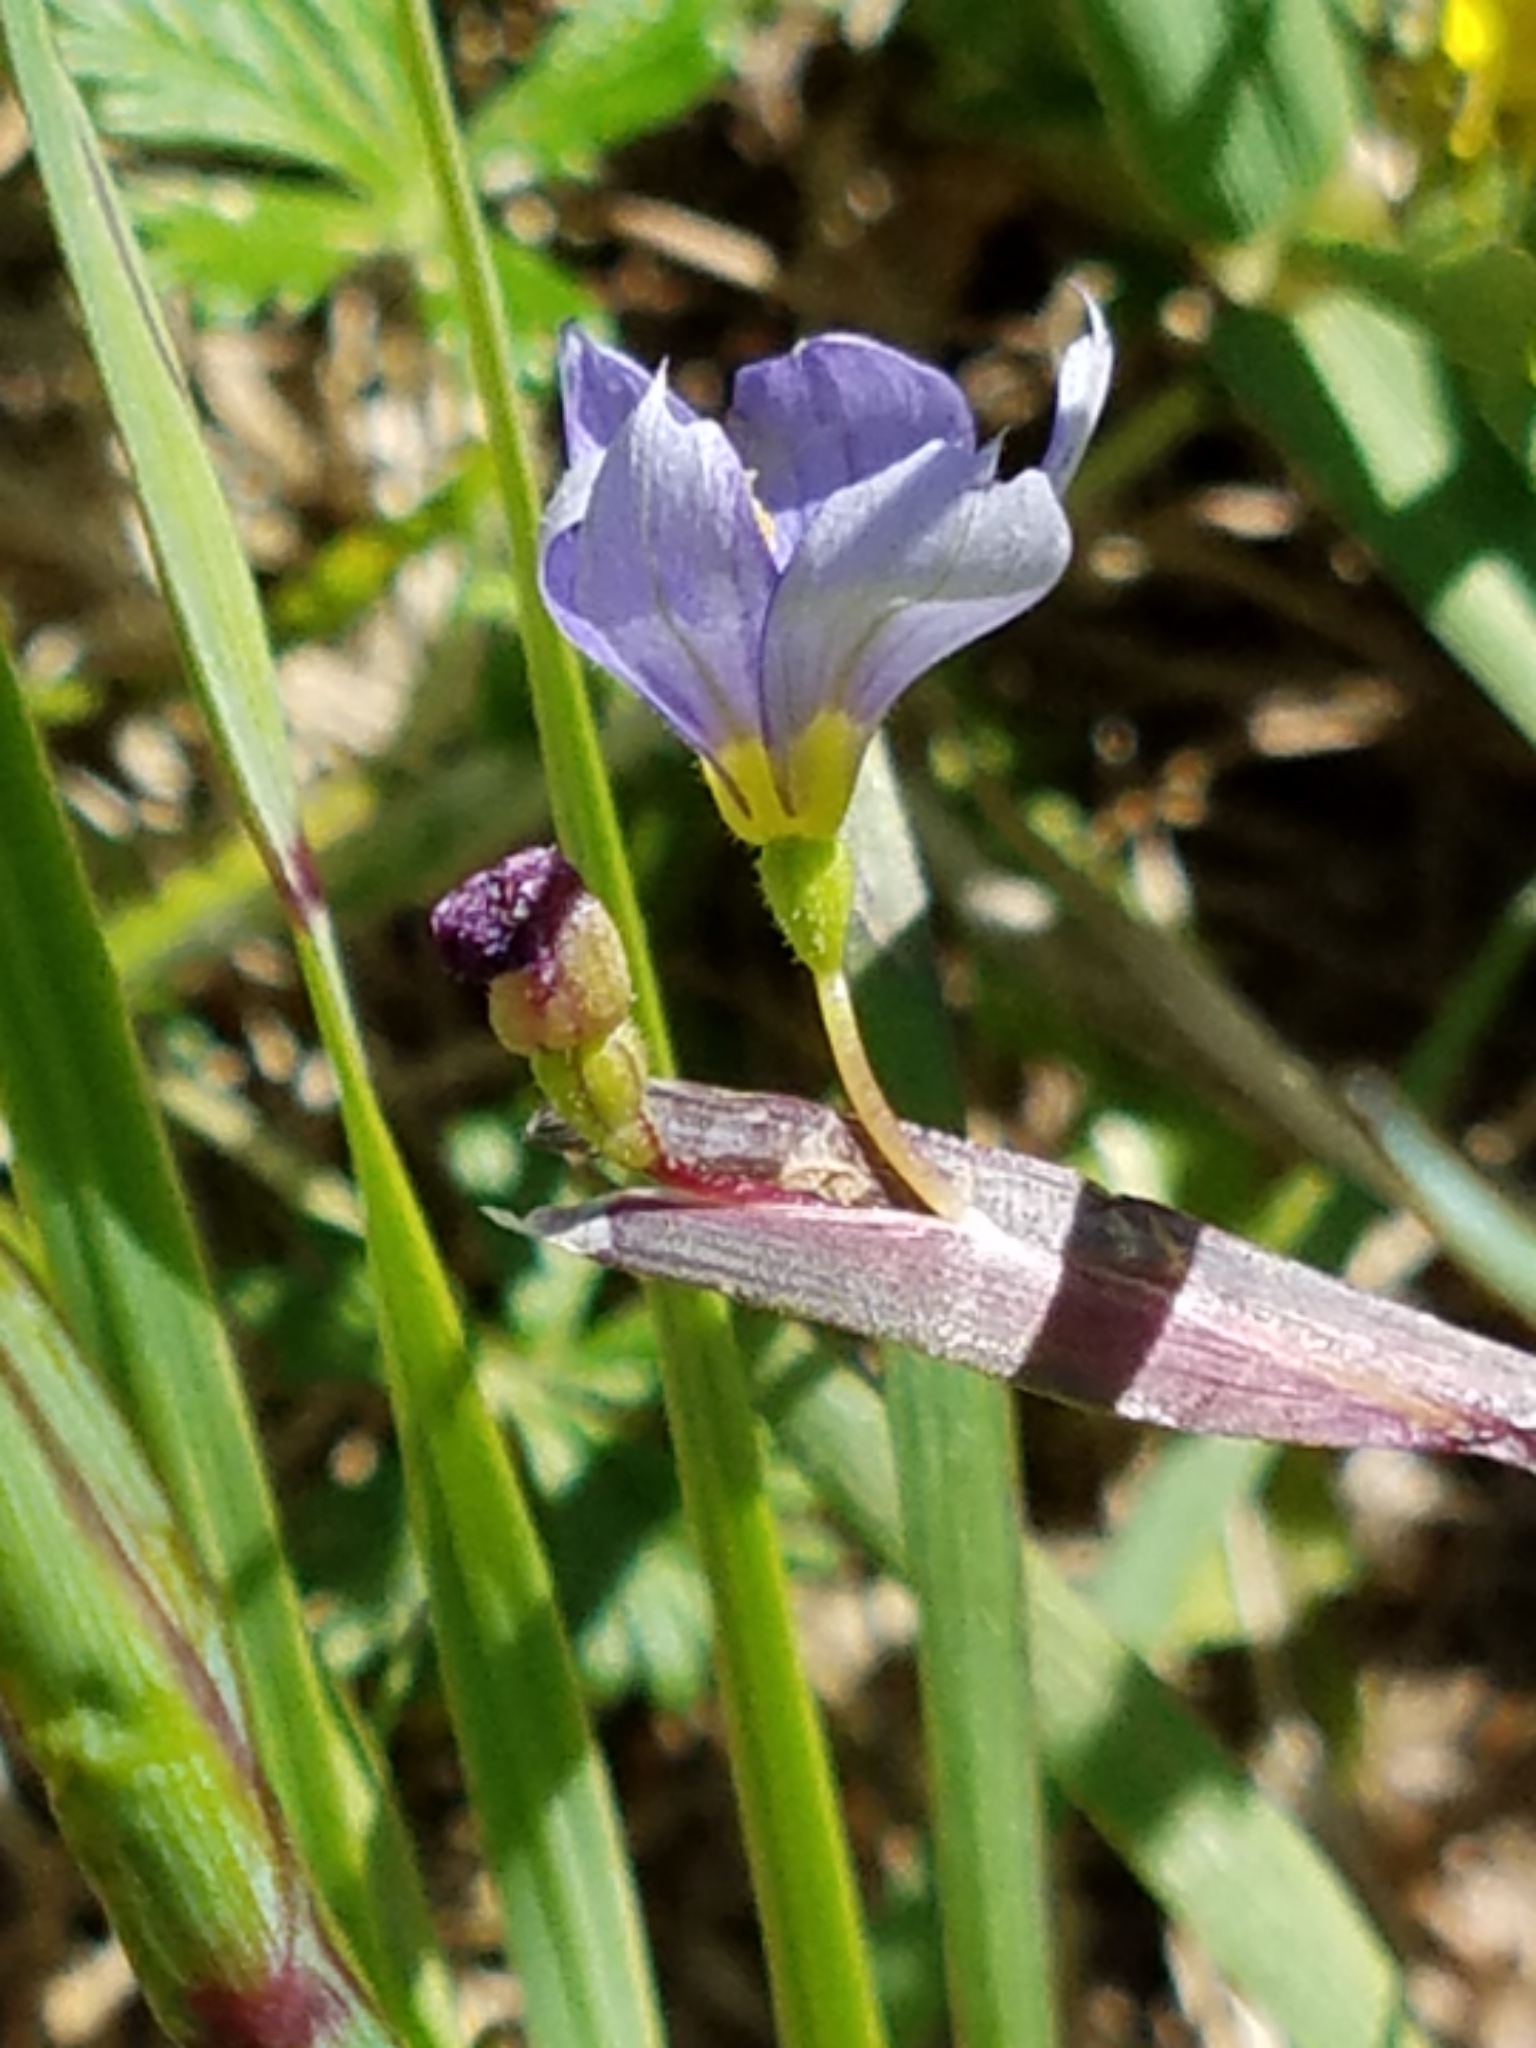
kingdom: Plantae
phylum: Tracheophyta
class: Liliopsida
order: Asparagales
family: Iridaceae
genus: Sisyrinchium
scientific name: Sisyrinchium montanum
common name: American blue-eyed-grass
